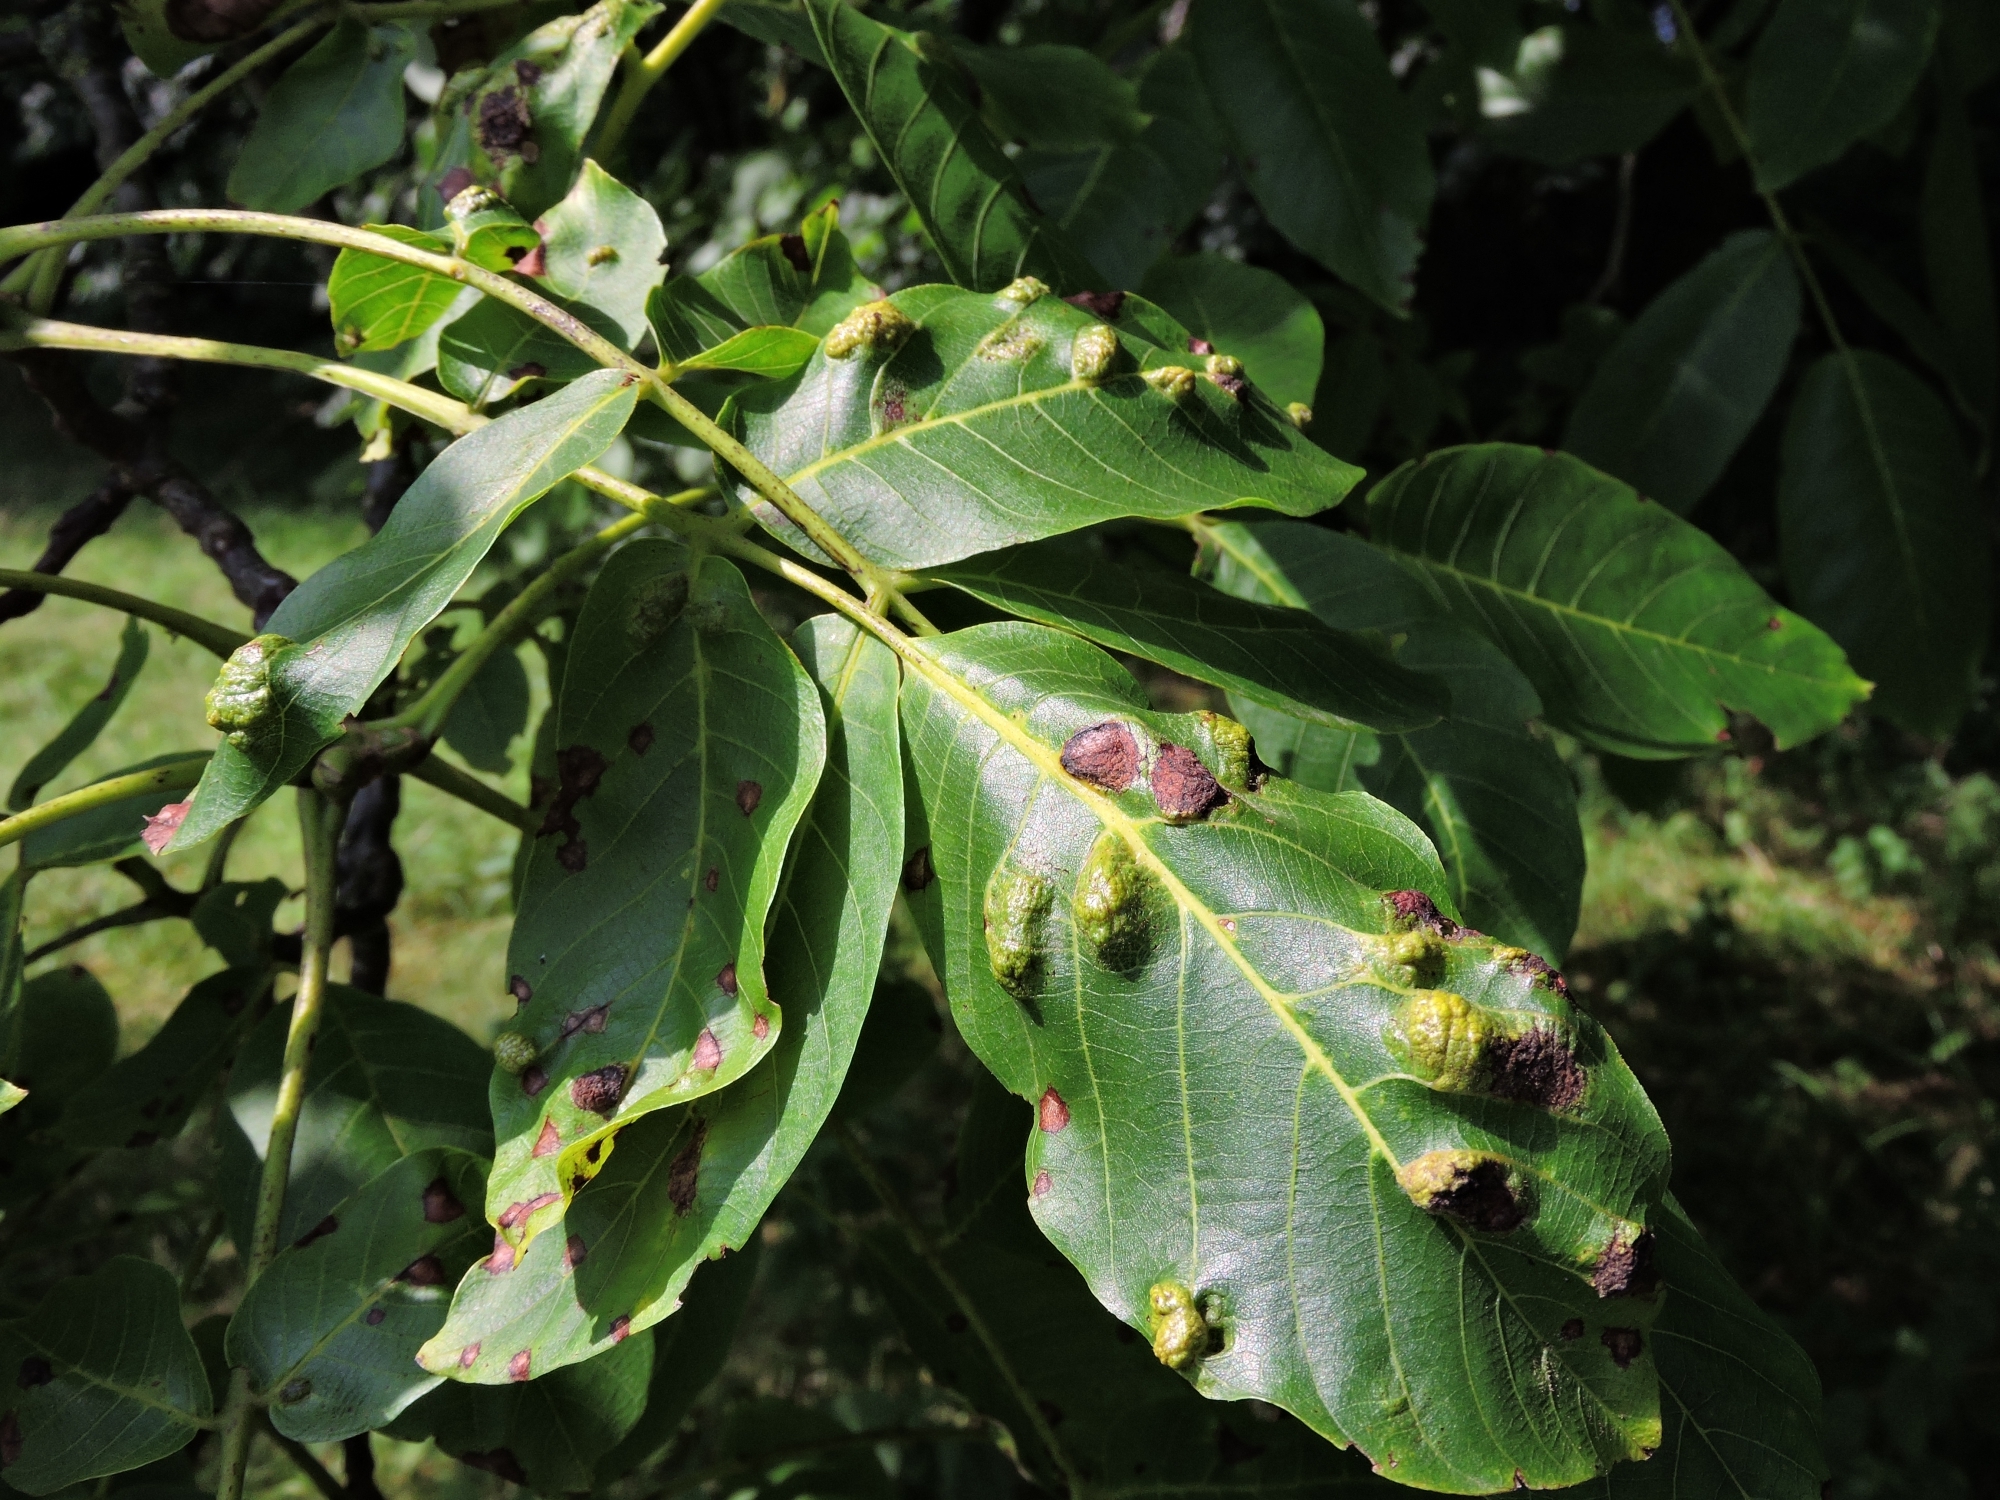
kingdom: Animalia
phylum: Arthropoda
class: Arachnida
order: Trombidiformes
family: Eriophyidae
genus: Aceria
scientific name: Aceria erinea
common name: Persian walnut erineum mite
